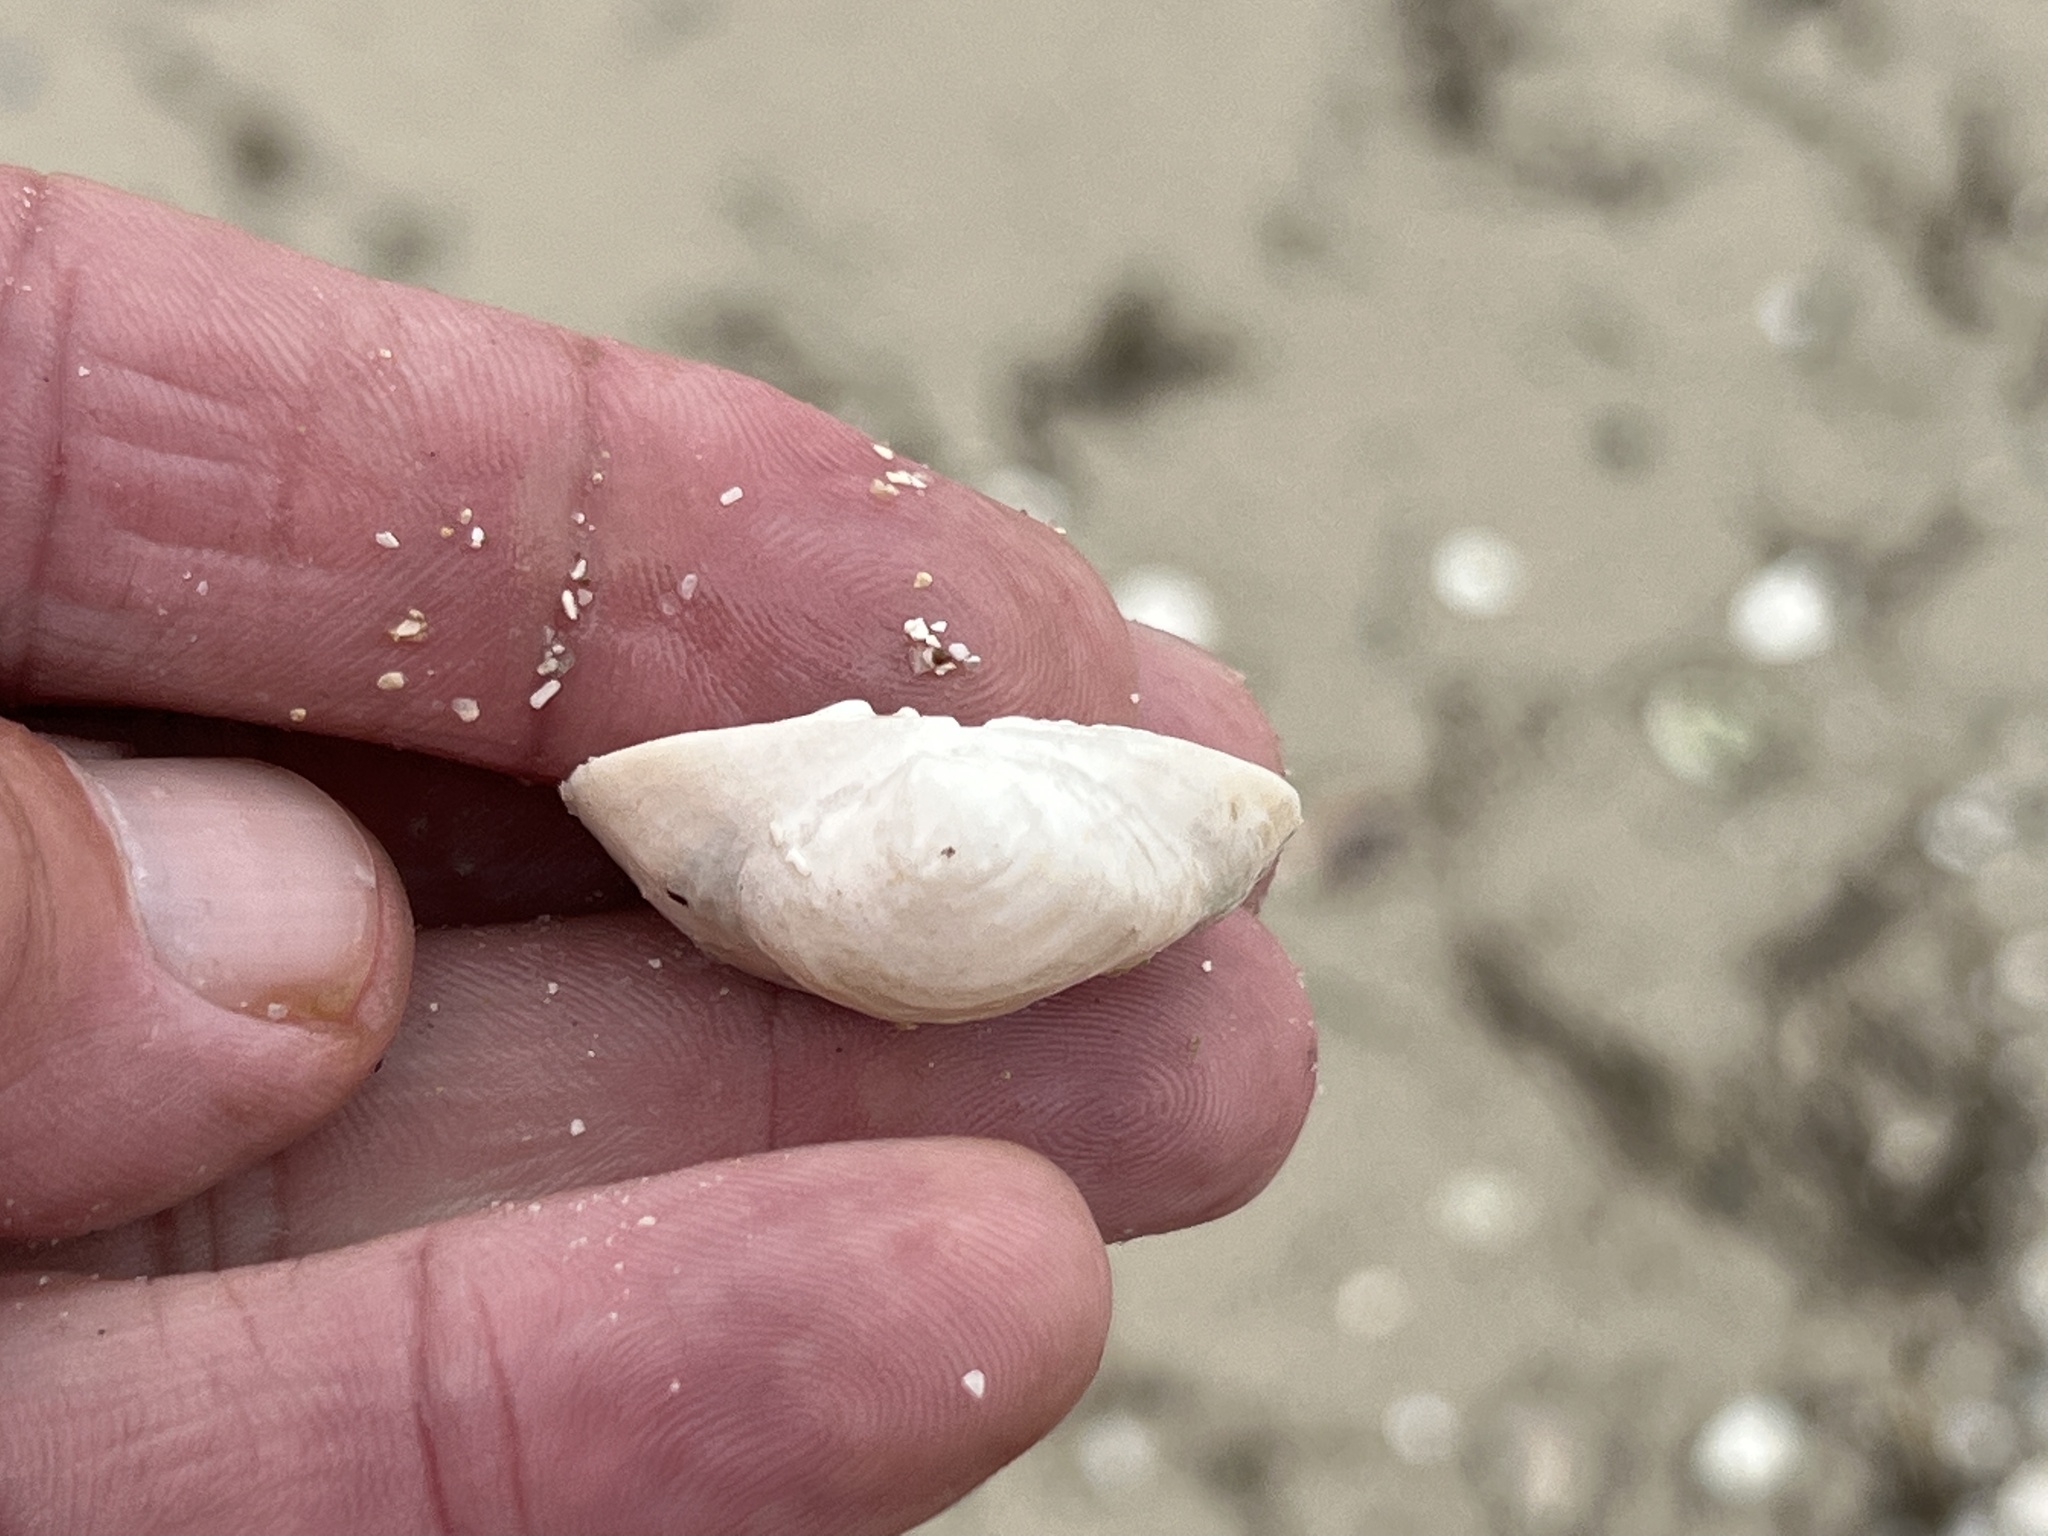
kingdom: Animalia
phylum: Mollusca
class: Bivalvia
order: Venerida
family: Mactridae
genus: Rangia
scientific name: Rangia cuneata
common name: Atlantic rangia
